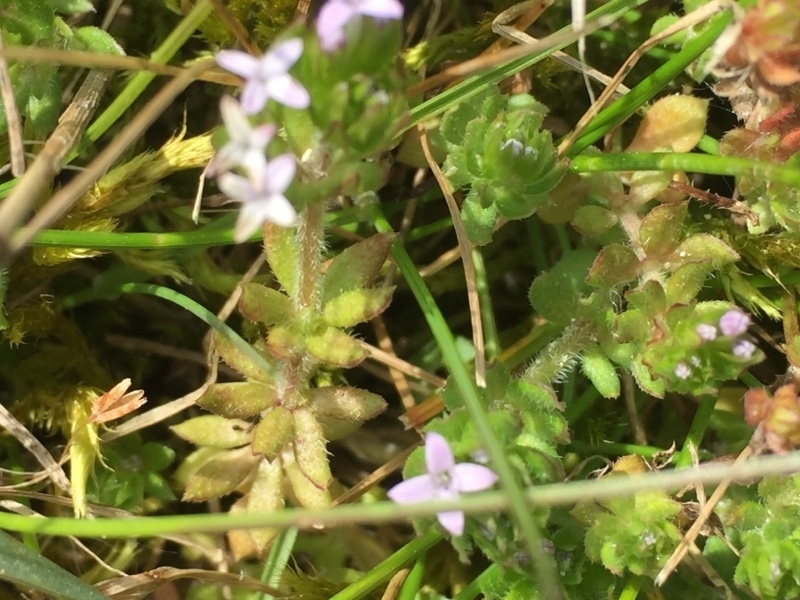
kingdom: Plantae
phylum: Tracheophyta
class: Magnoliopsida
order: Gentianales
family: Rubiaceae
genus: Sherardia
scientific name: Sherardia arvensis
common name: Field madder
